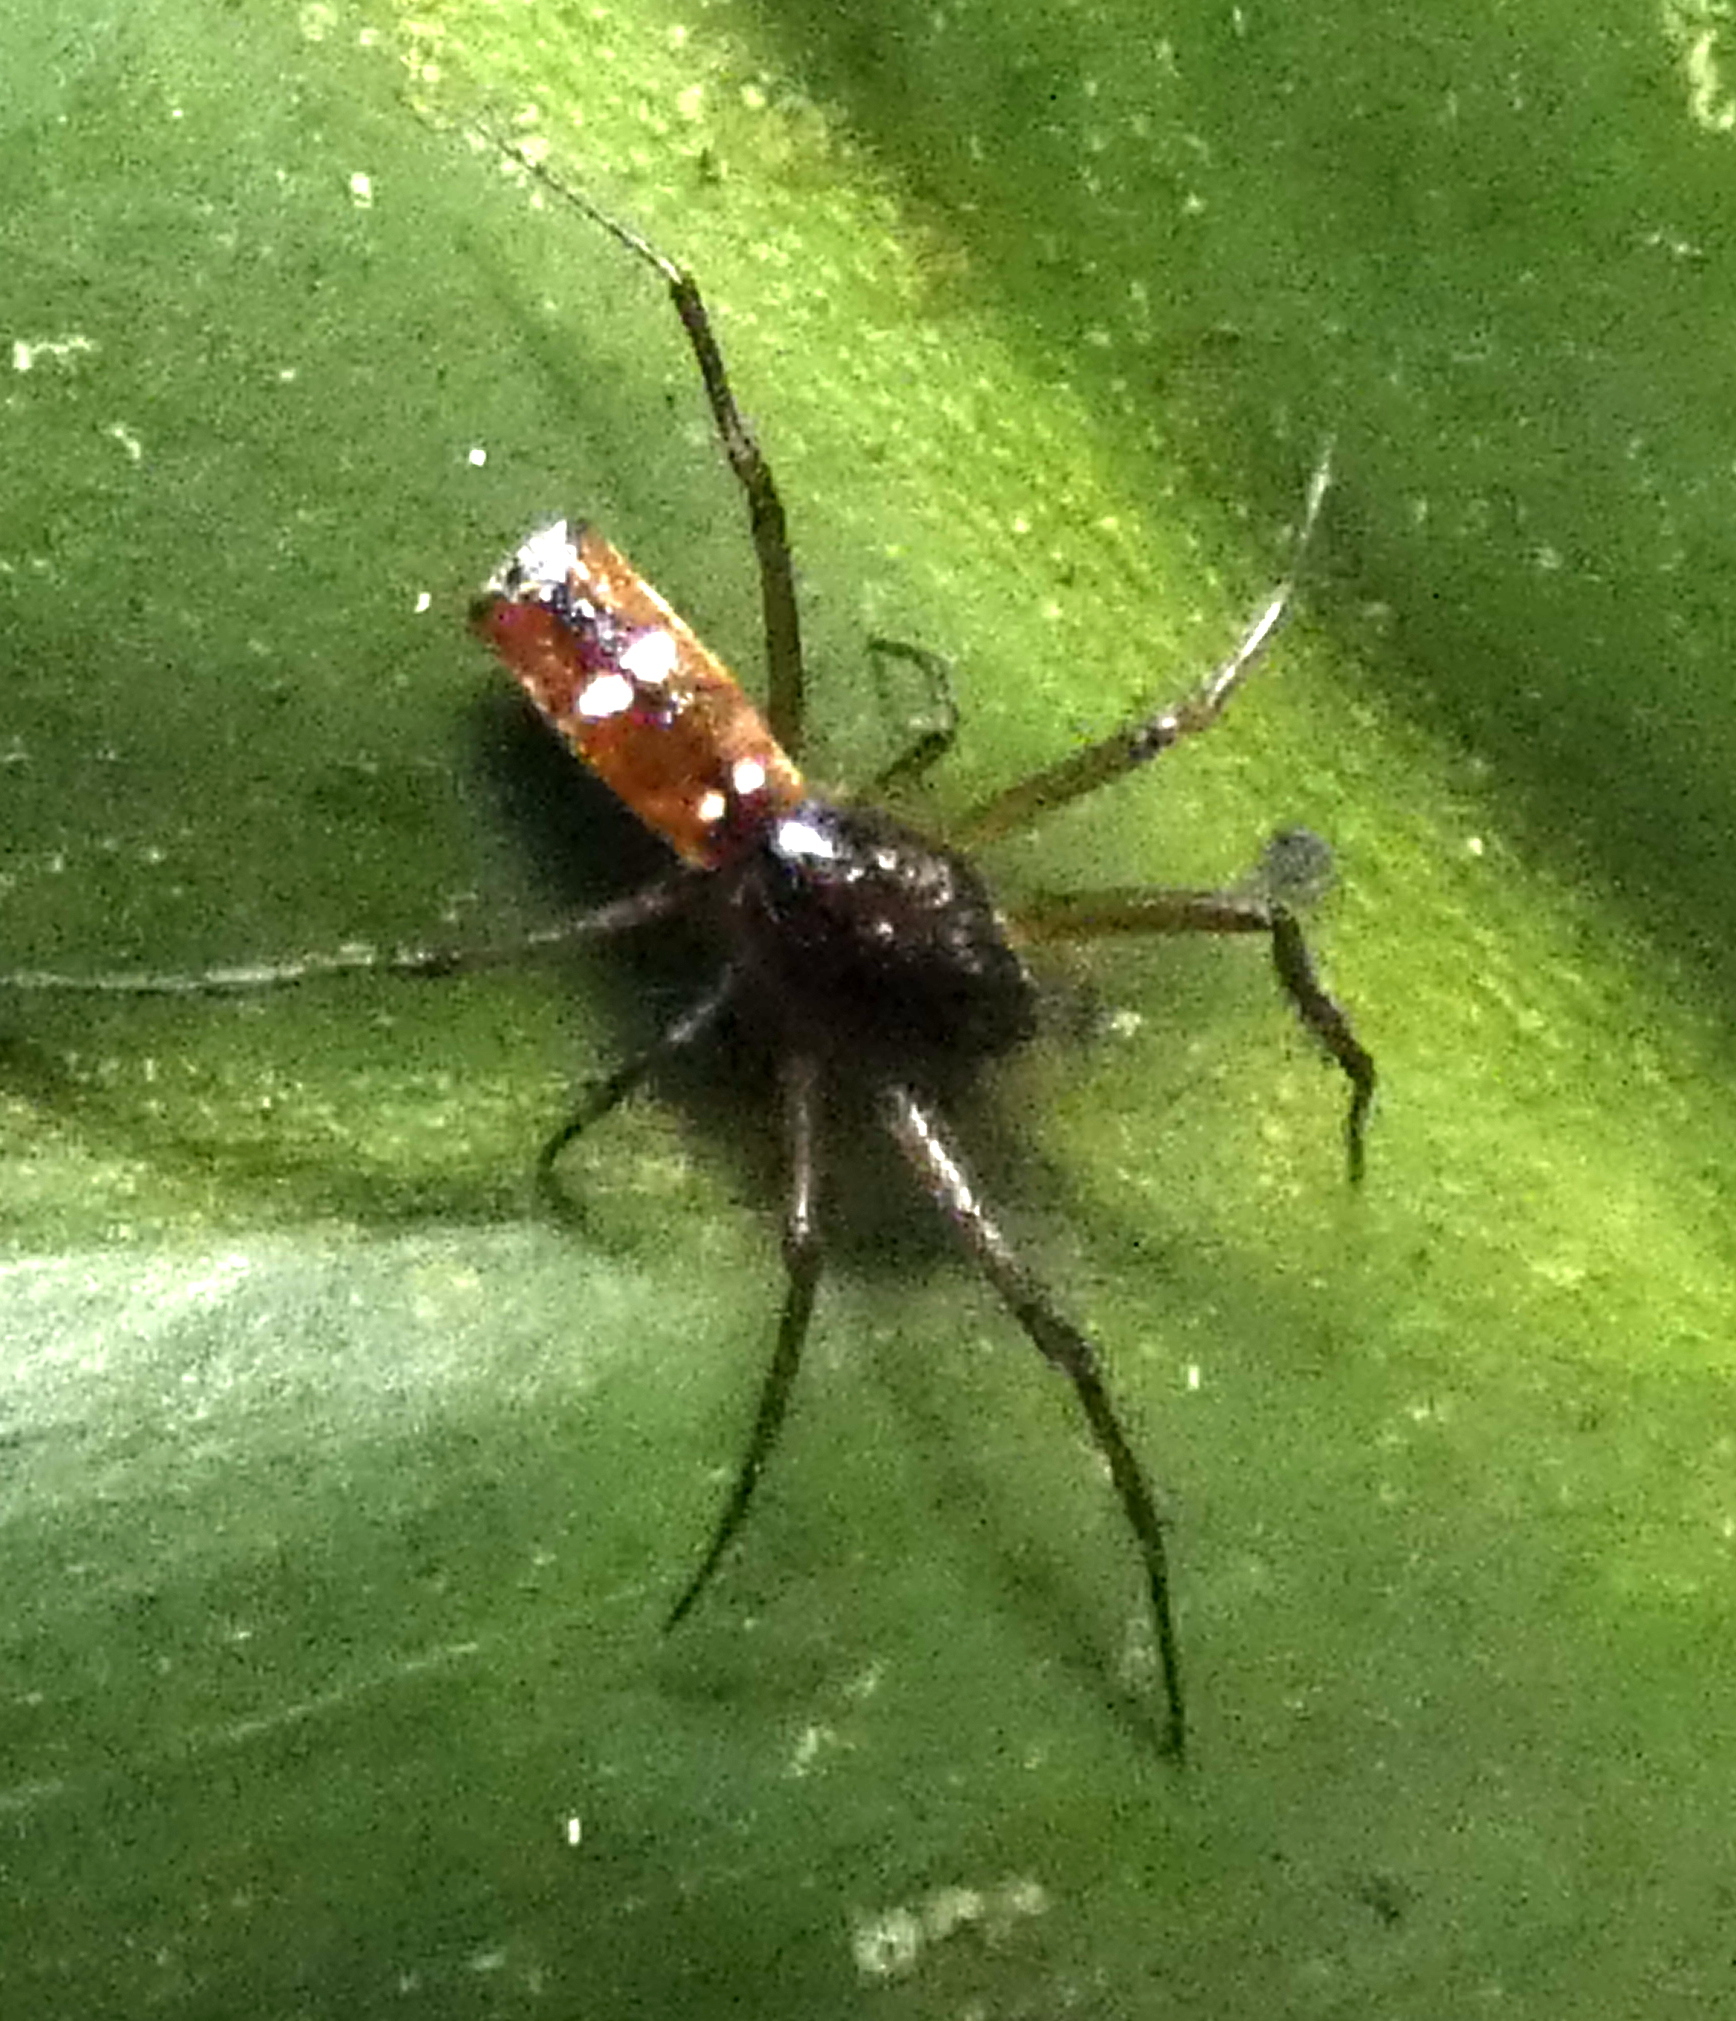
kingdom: Animalia
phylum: Arthropoda
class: Arachnida
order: Araneae
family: Araneidae
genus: Micrathena
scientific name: Micrathena fissispina
